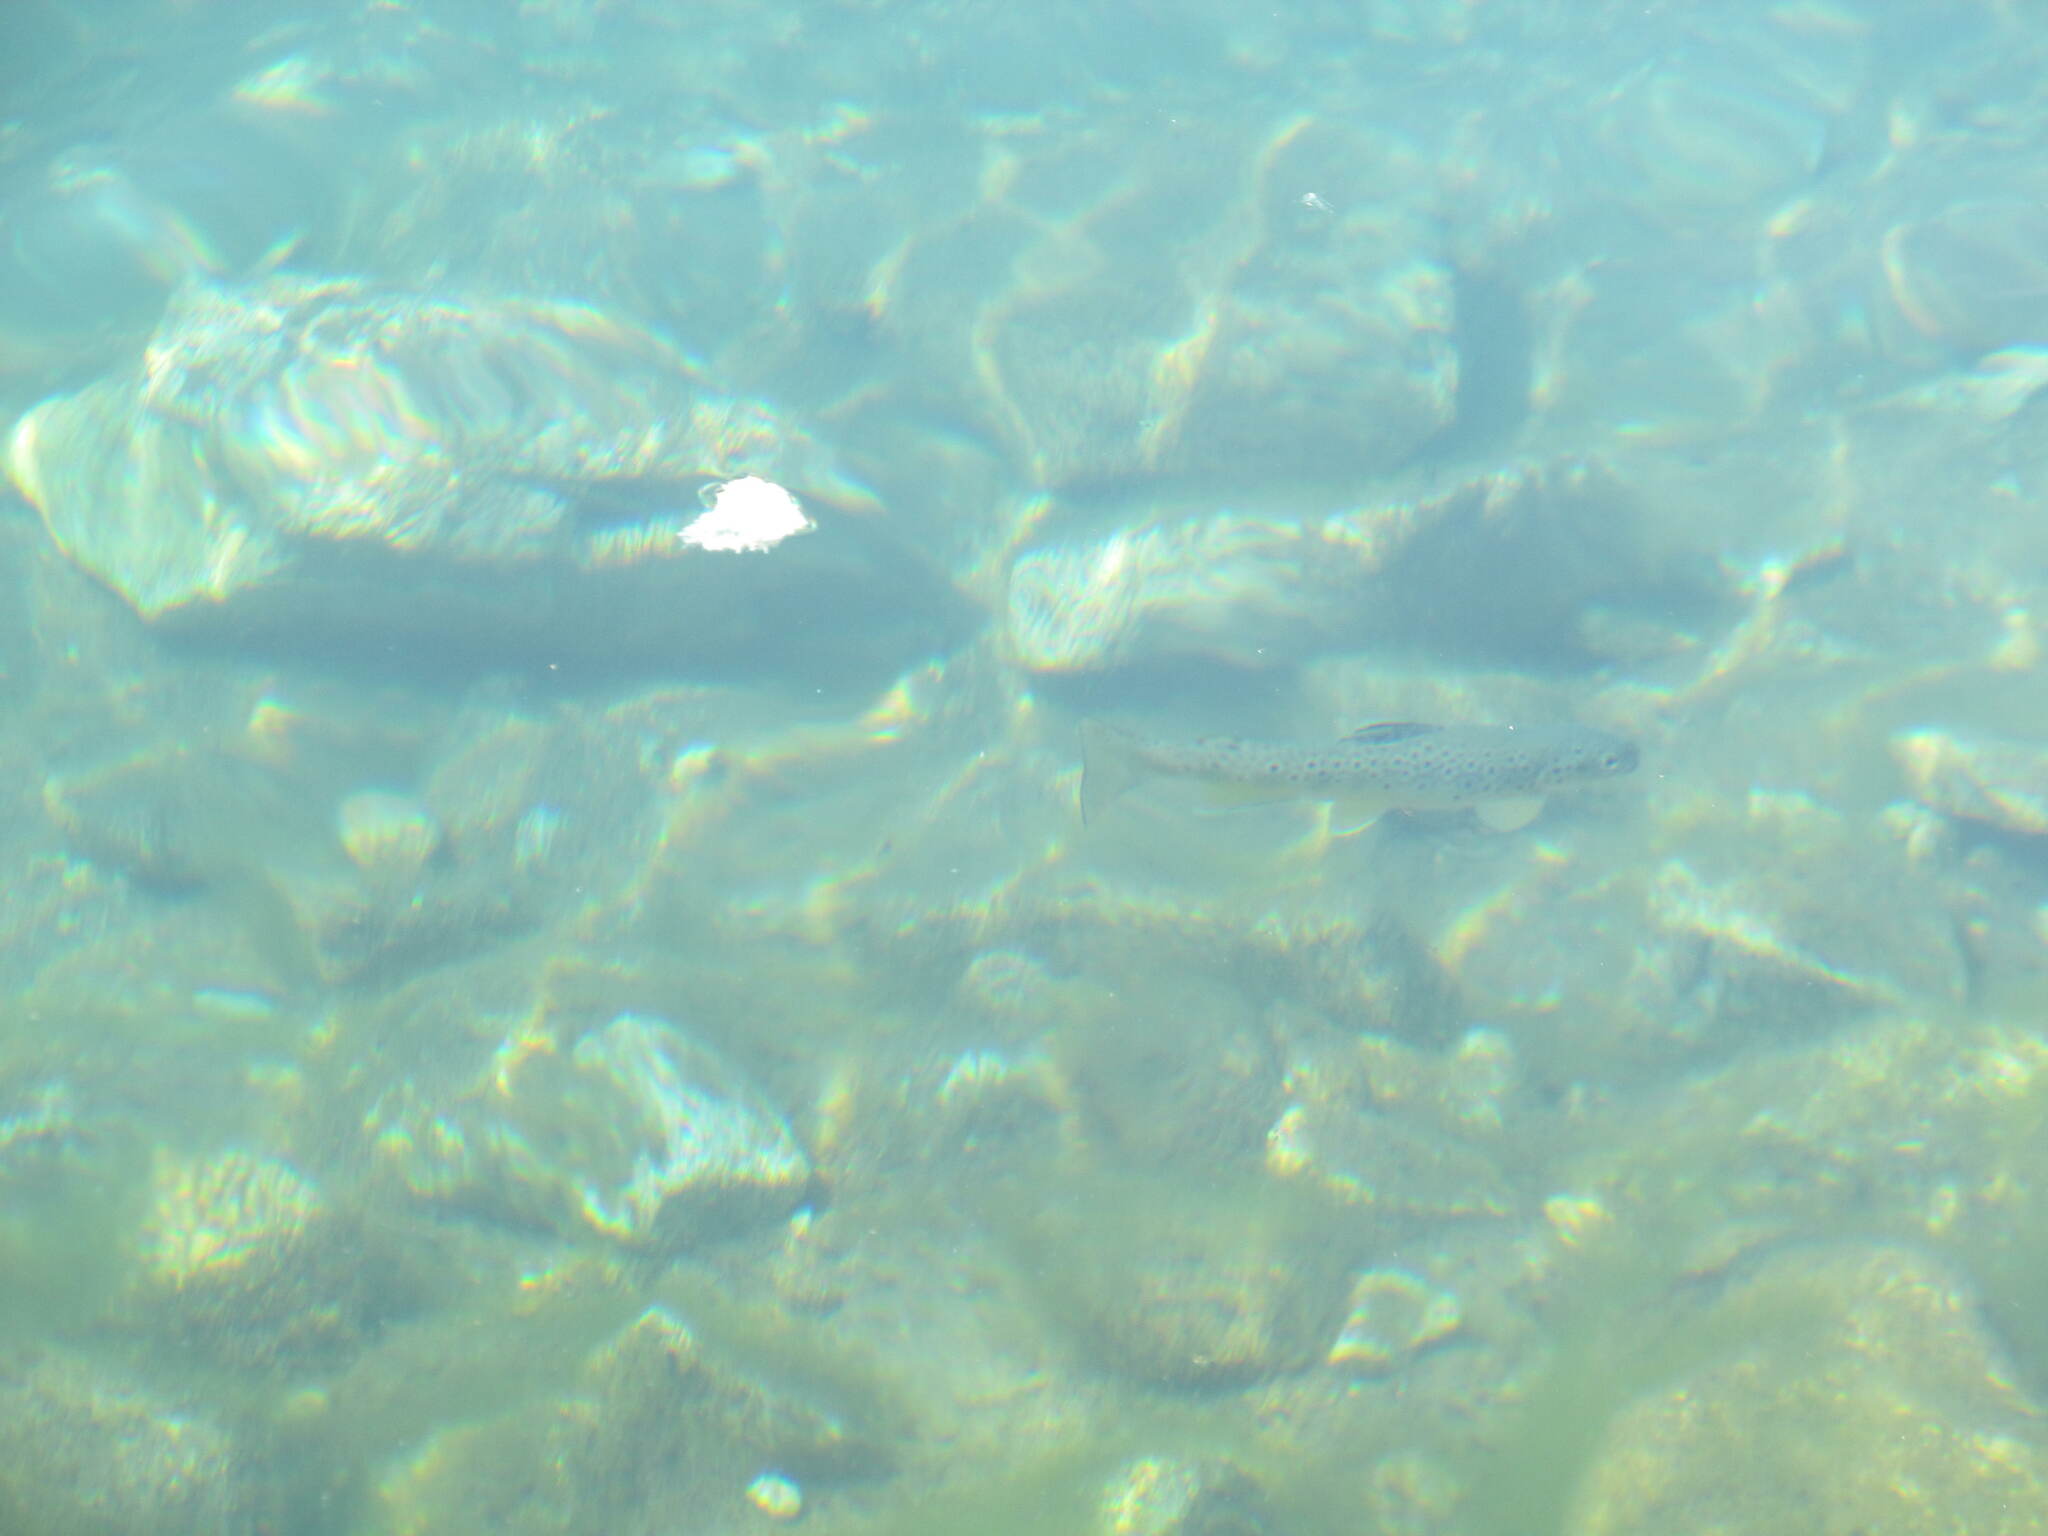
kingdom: Animalia
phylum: Chordata
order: Salmoniformes
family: Salmonidae
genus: Salmo
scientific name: Salmo trutta
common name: Brown trout
